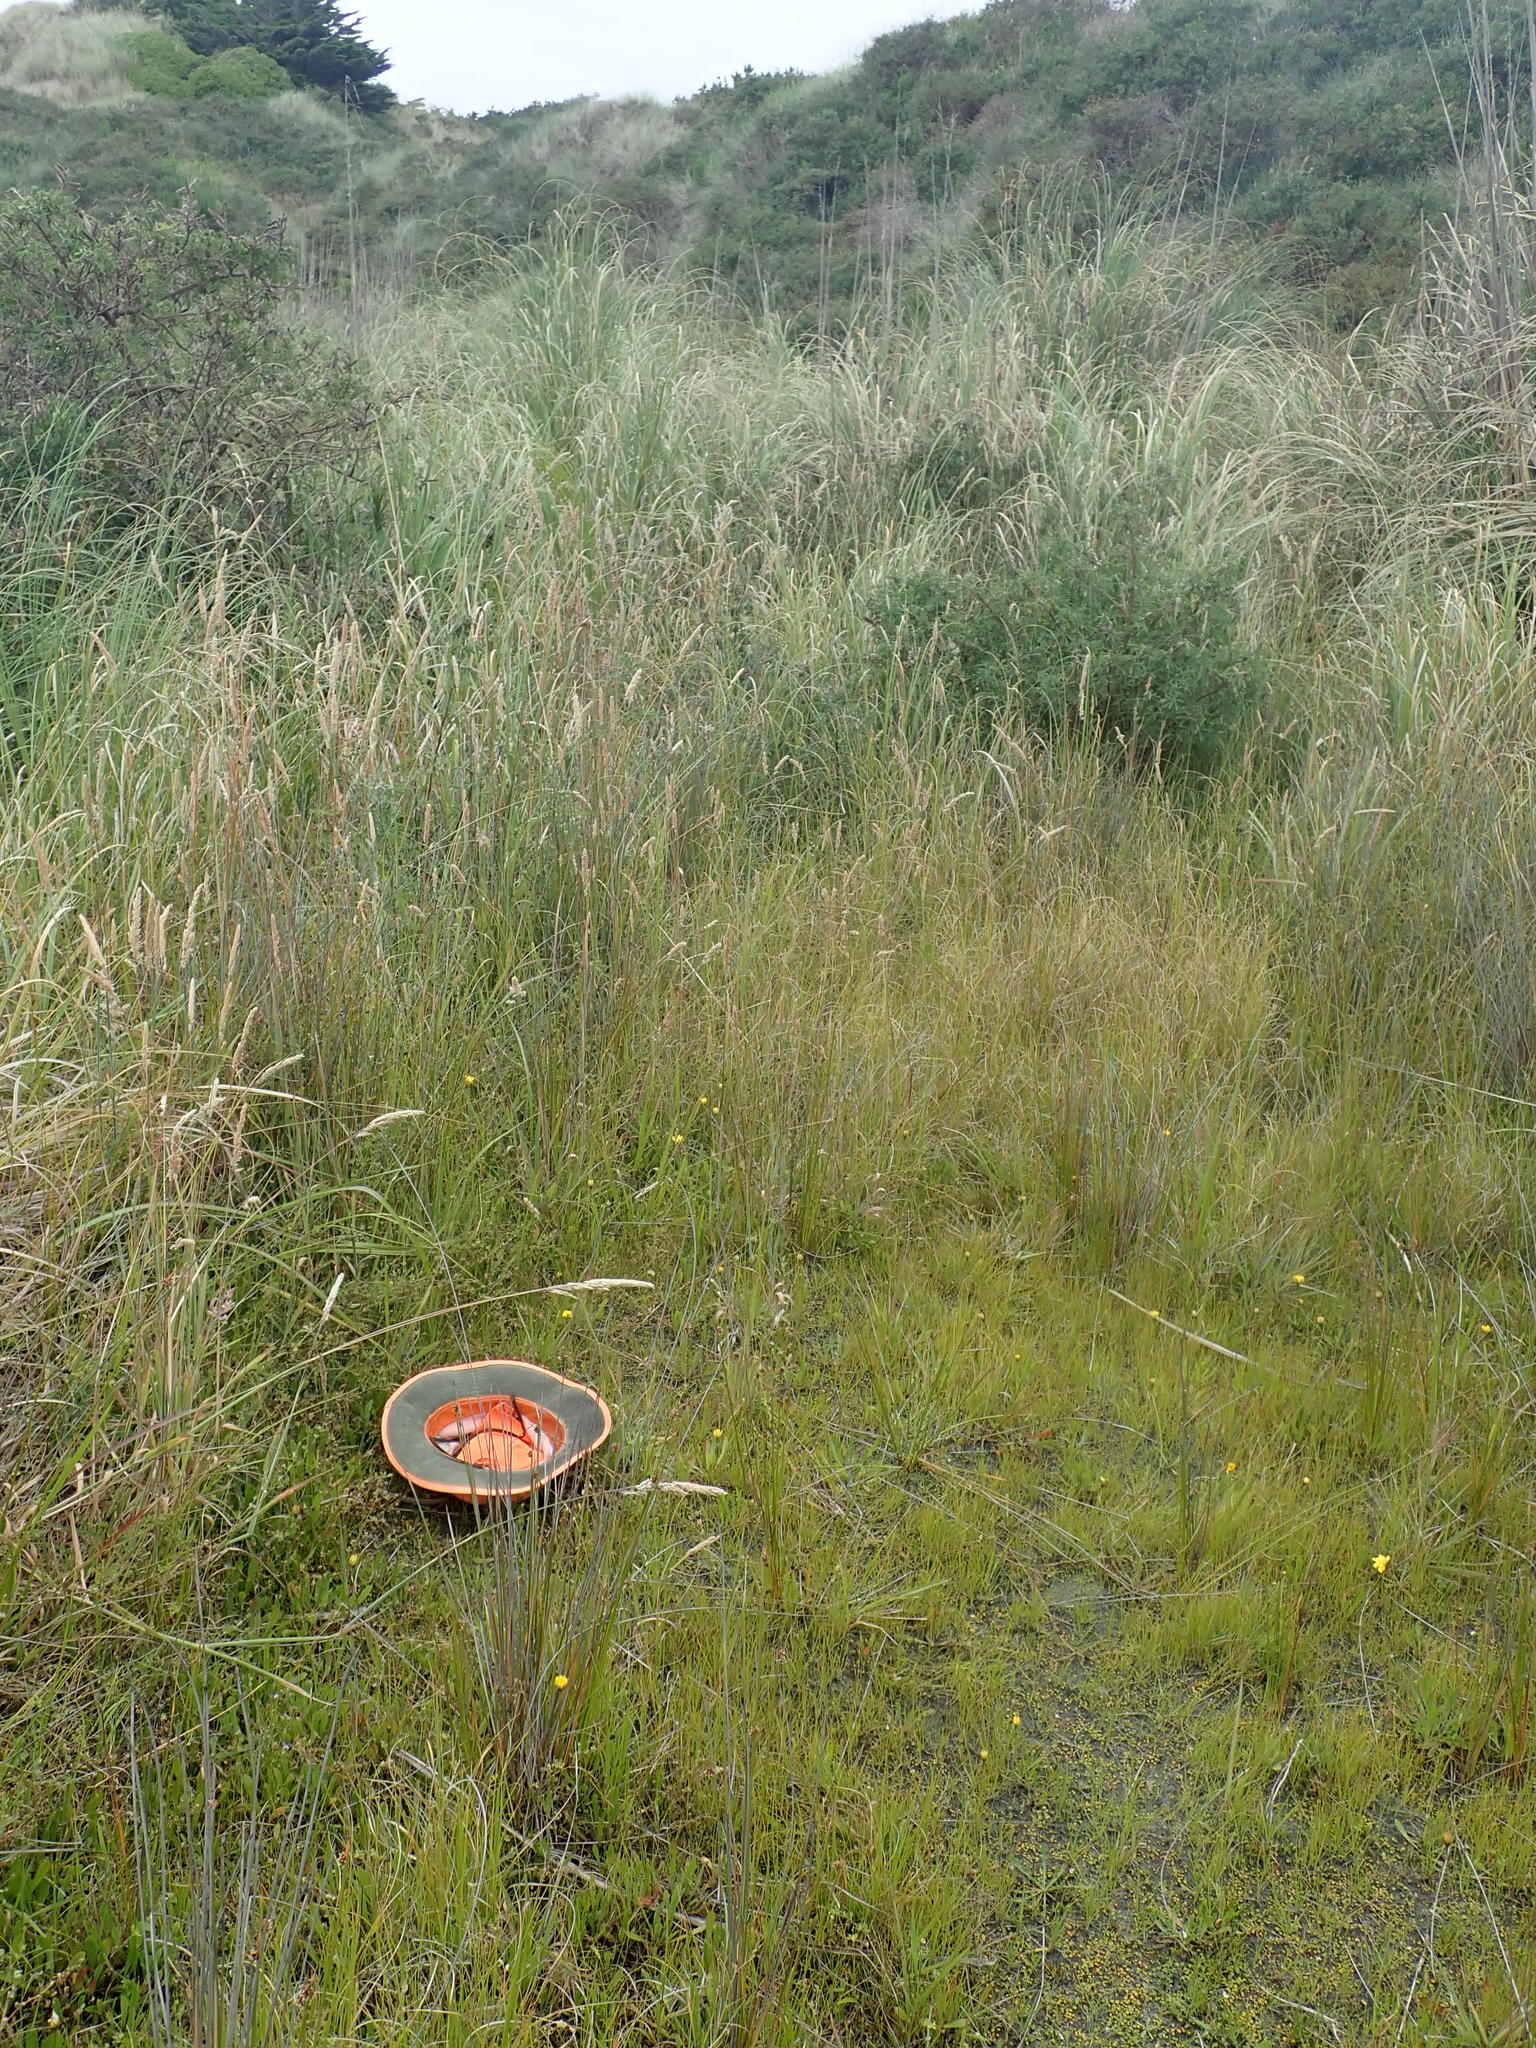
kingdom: Plantae
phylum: Tracheophyta
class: Magnoliopsida
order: Asterales
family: Goodeniaceae
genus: Goodenia
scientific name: Goodenia heenanii
